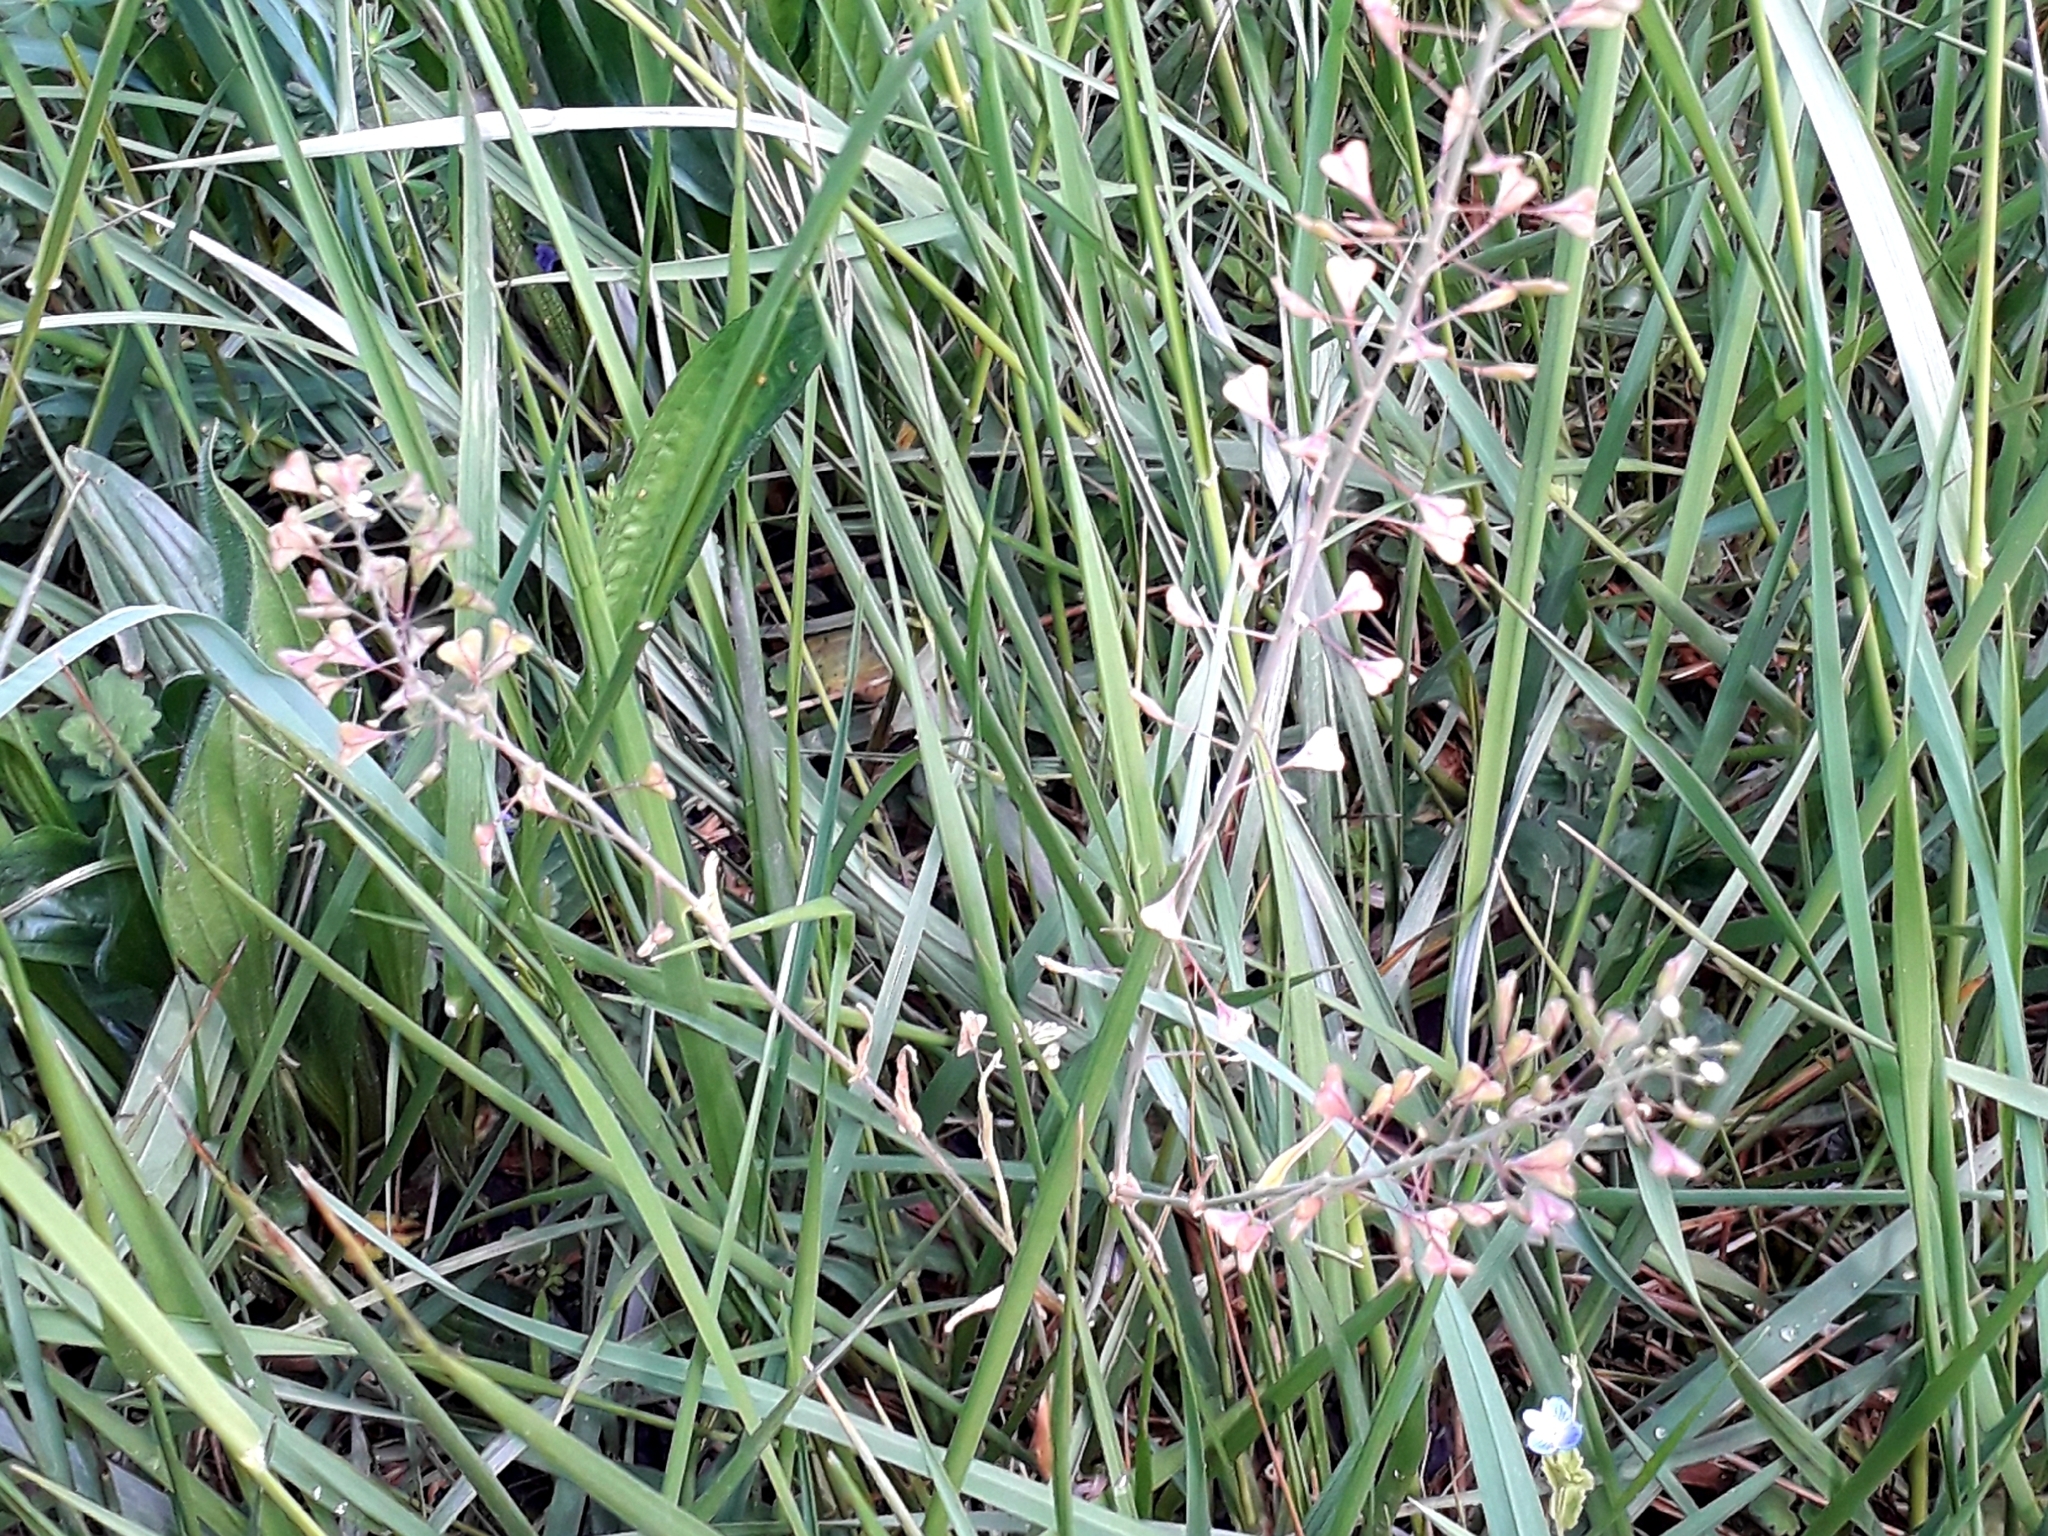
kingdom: Plantae
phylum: Tracheophyta
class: Magnoliopsida
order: Brassicales
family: Brassicaceae
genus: Capsella
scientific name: Capsella bursa-pastoris
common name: Shepherd's purse
